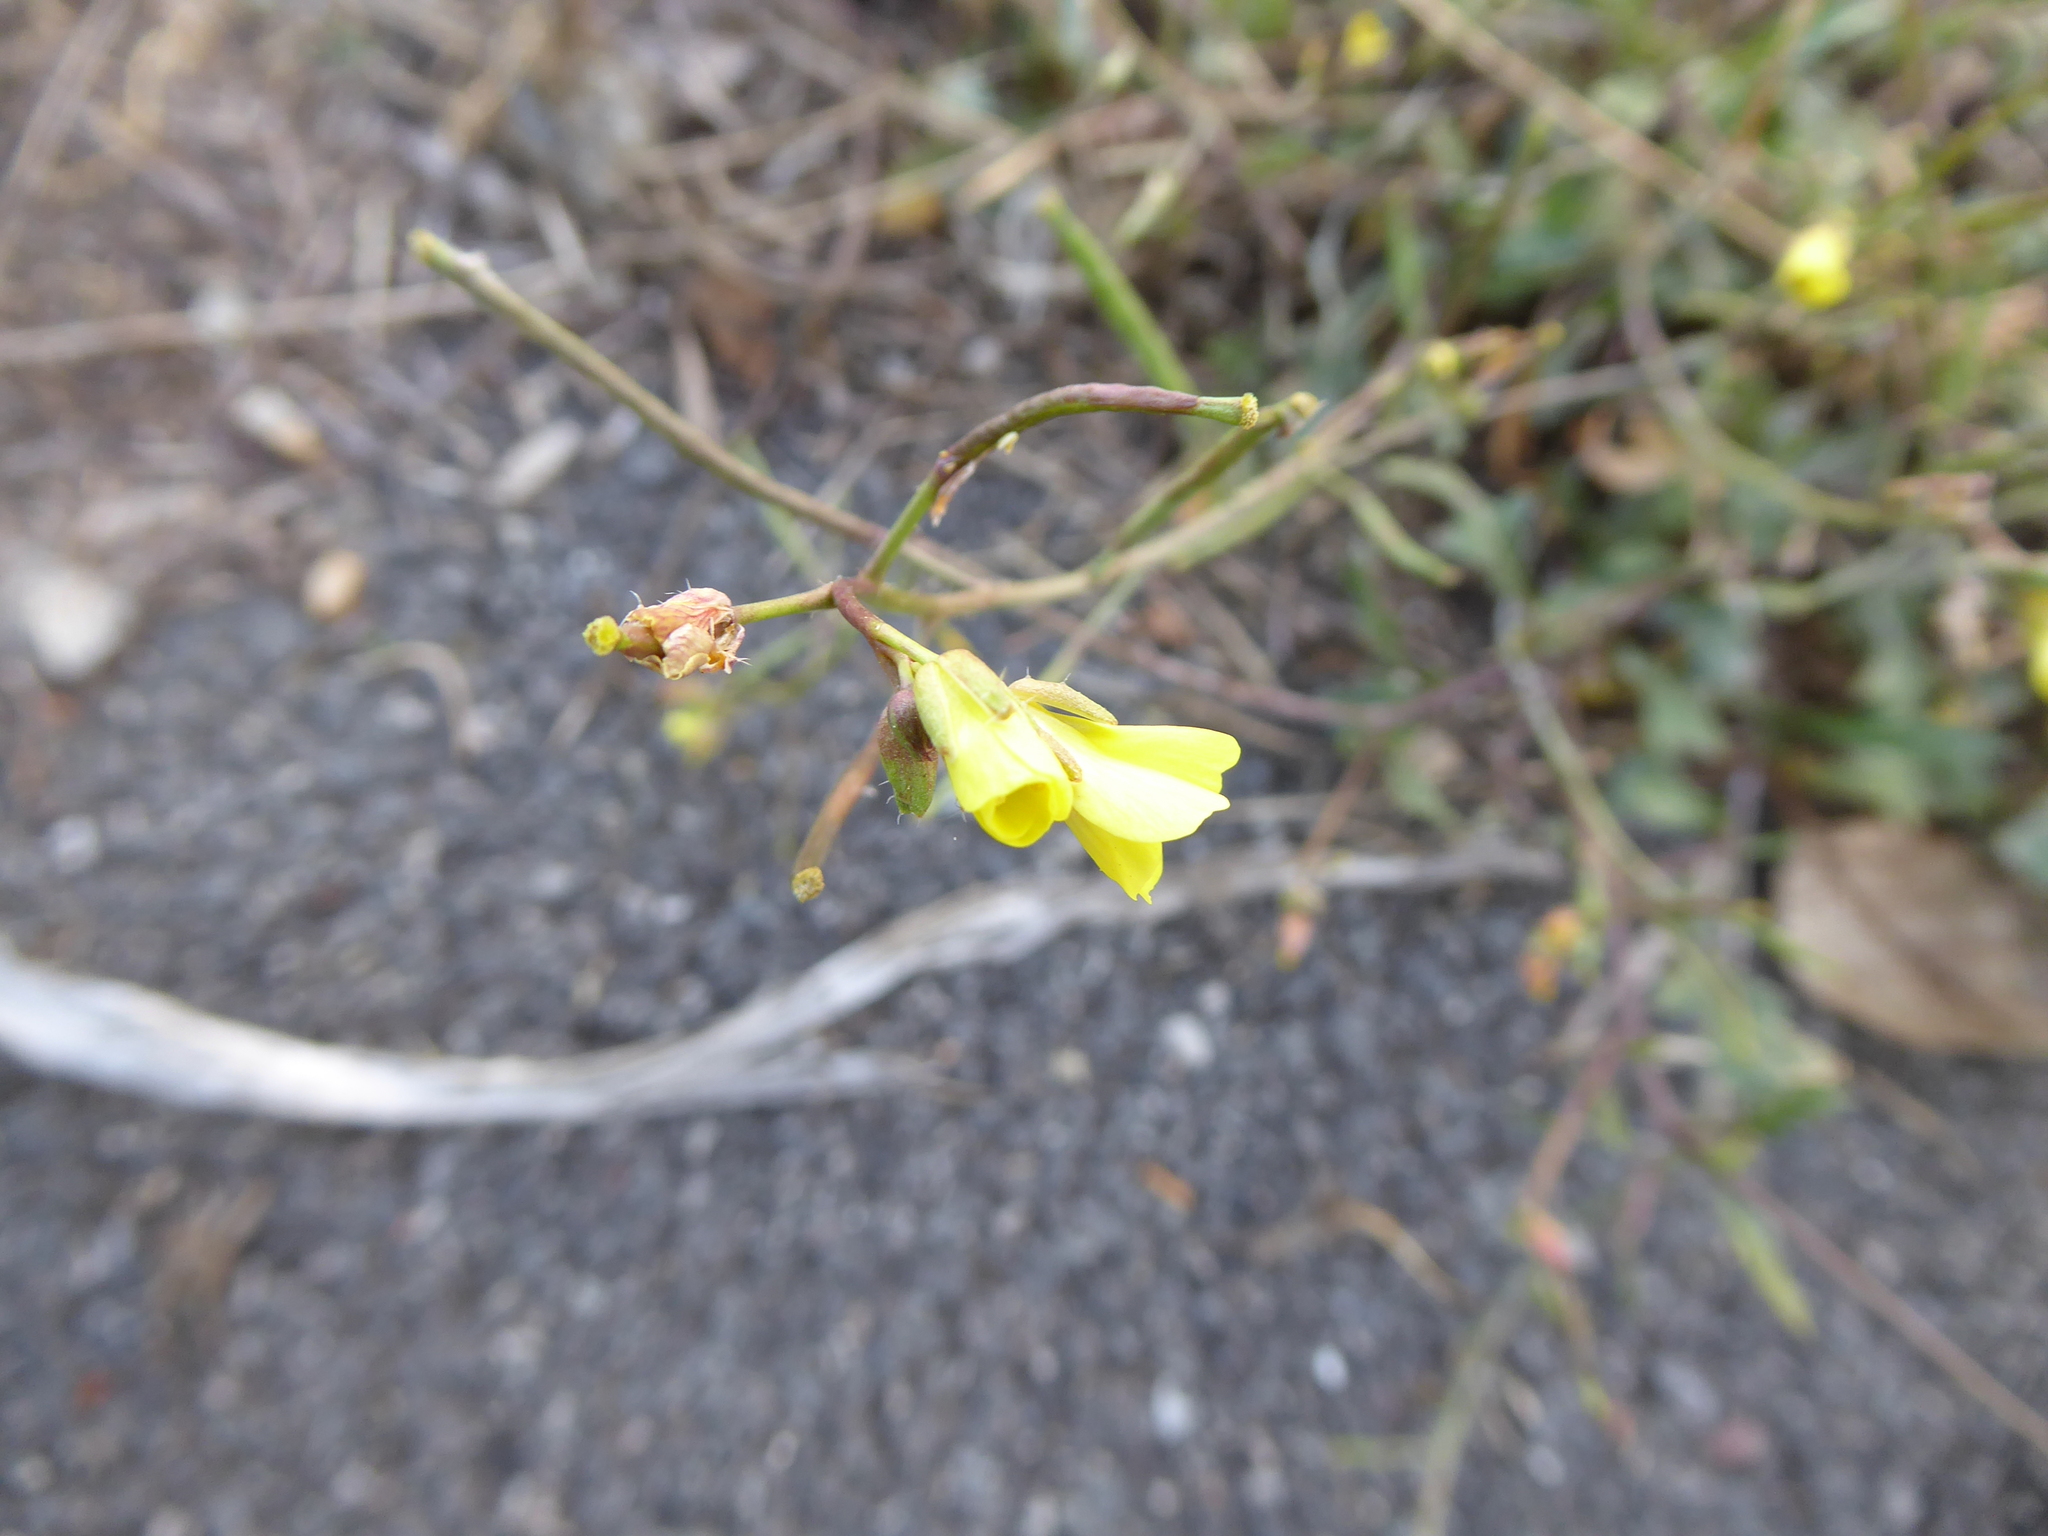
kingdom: Plantae
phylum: Tracheophyta
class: Magnoliopsida
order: Brassicales
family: Brassicaceae
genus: Diplotaxis
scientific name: Diplotaxis muralis
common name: Annual wall-rocket
